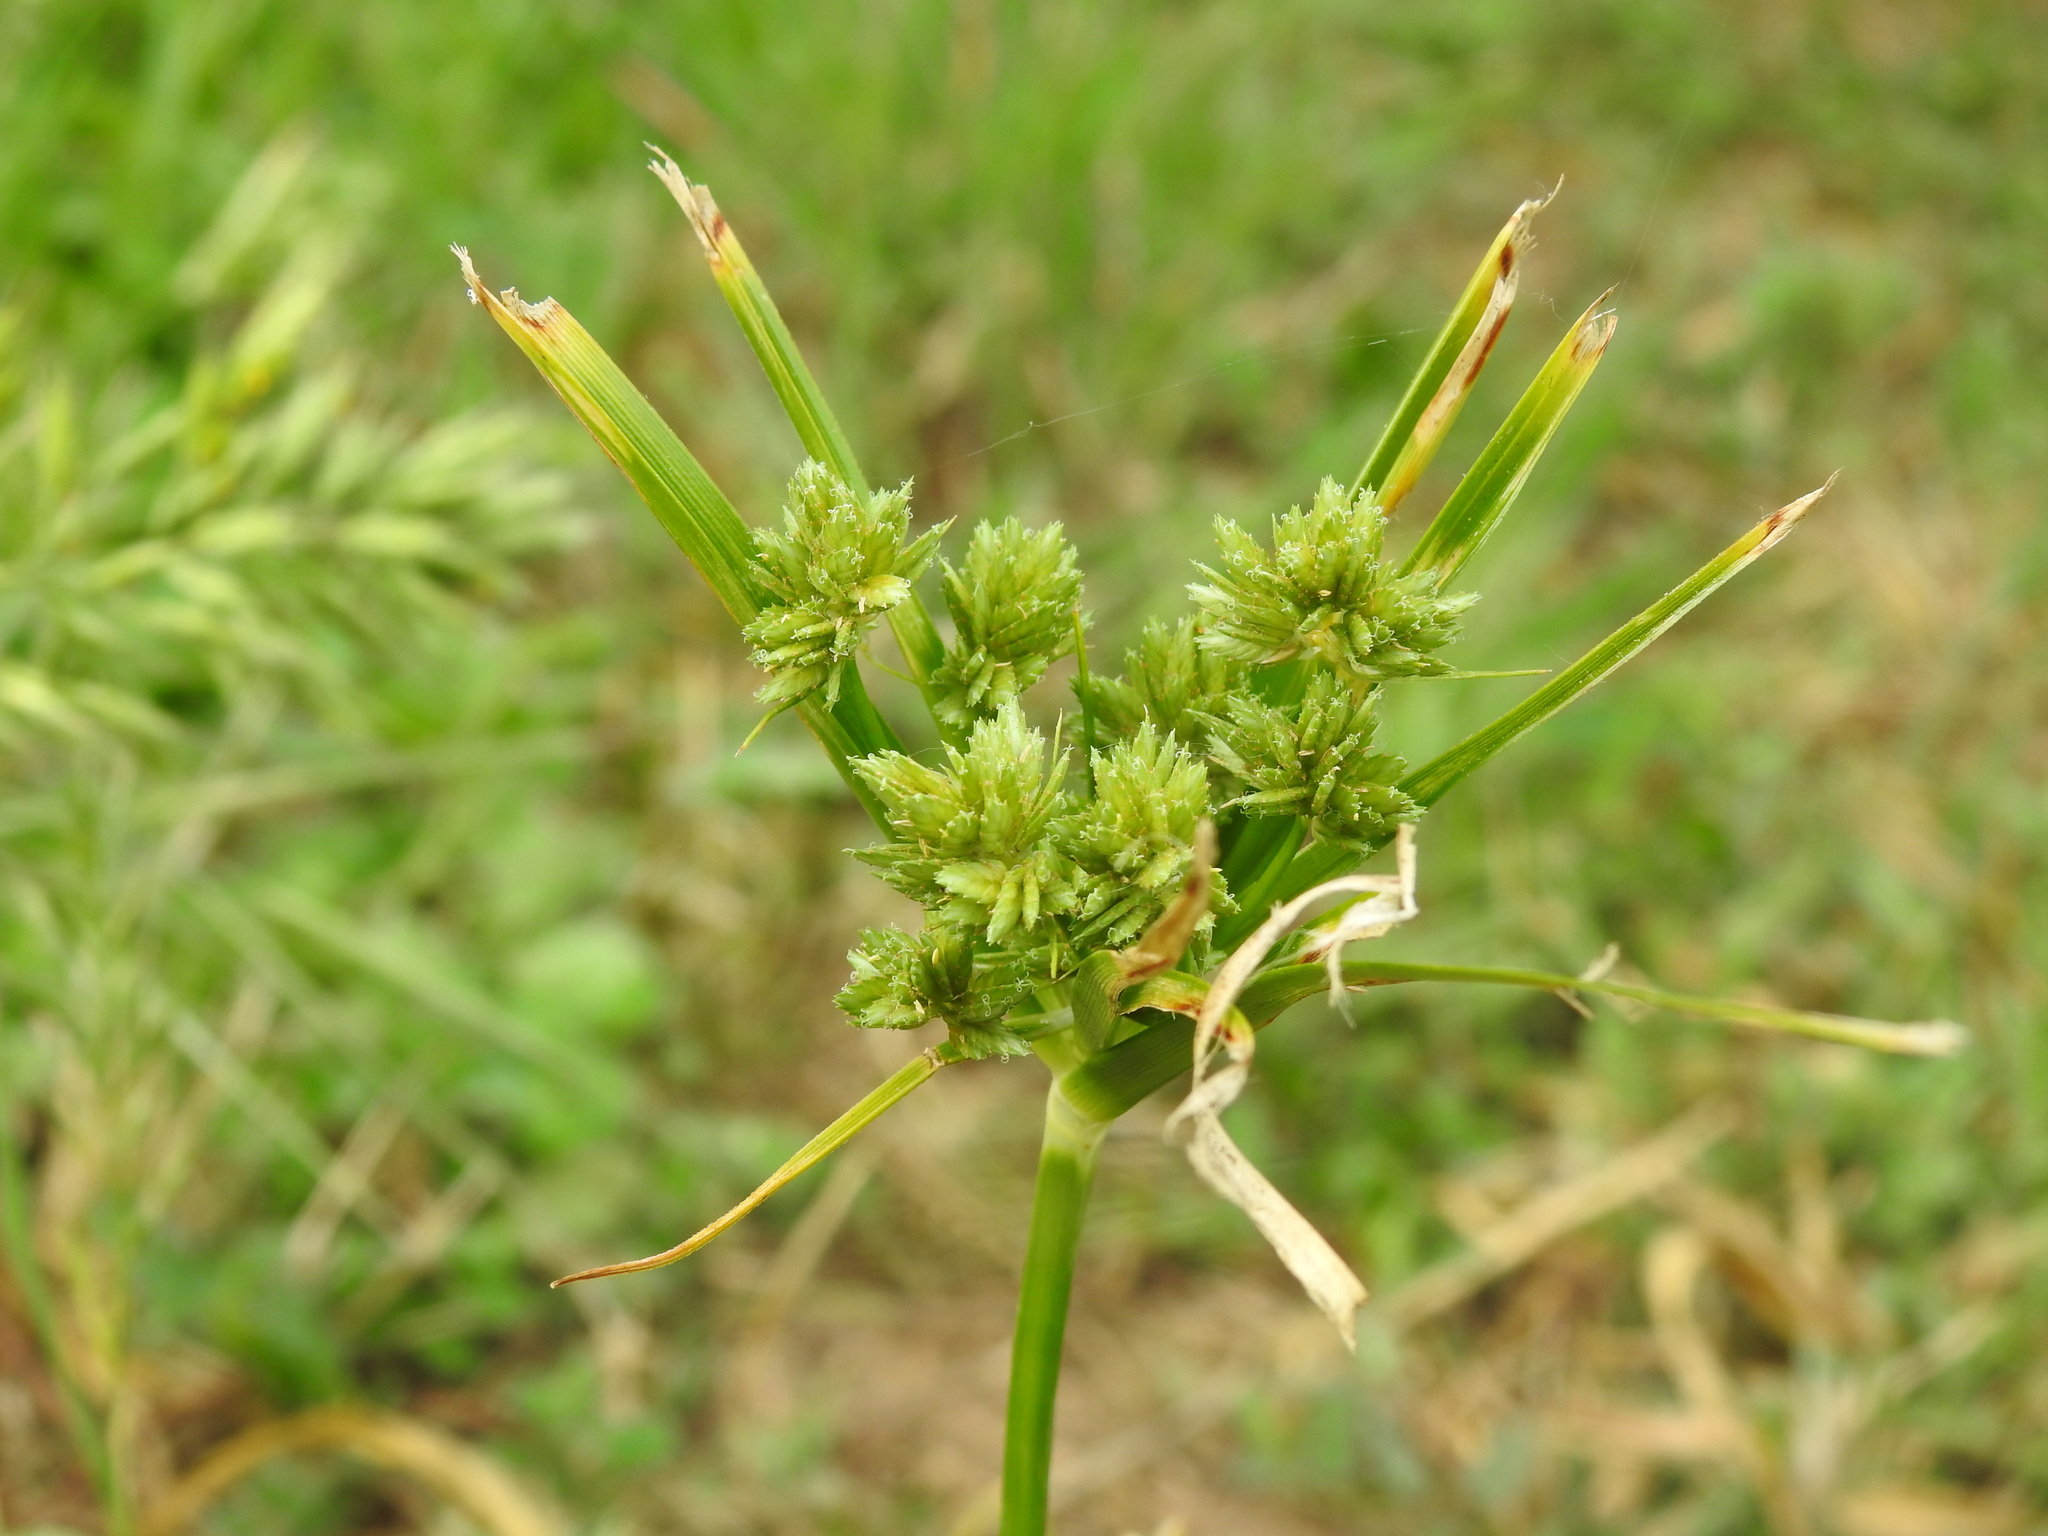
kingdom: Plantae
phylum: Tracheophyta
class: Liliopsida
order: Poales
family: Cyperaceae
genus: Cyperus
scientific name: Cyperus eragrostis
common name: Tall flatsedge
